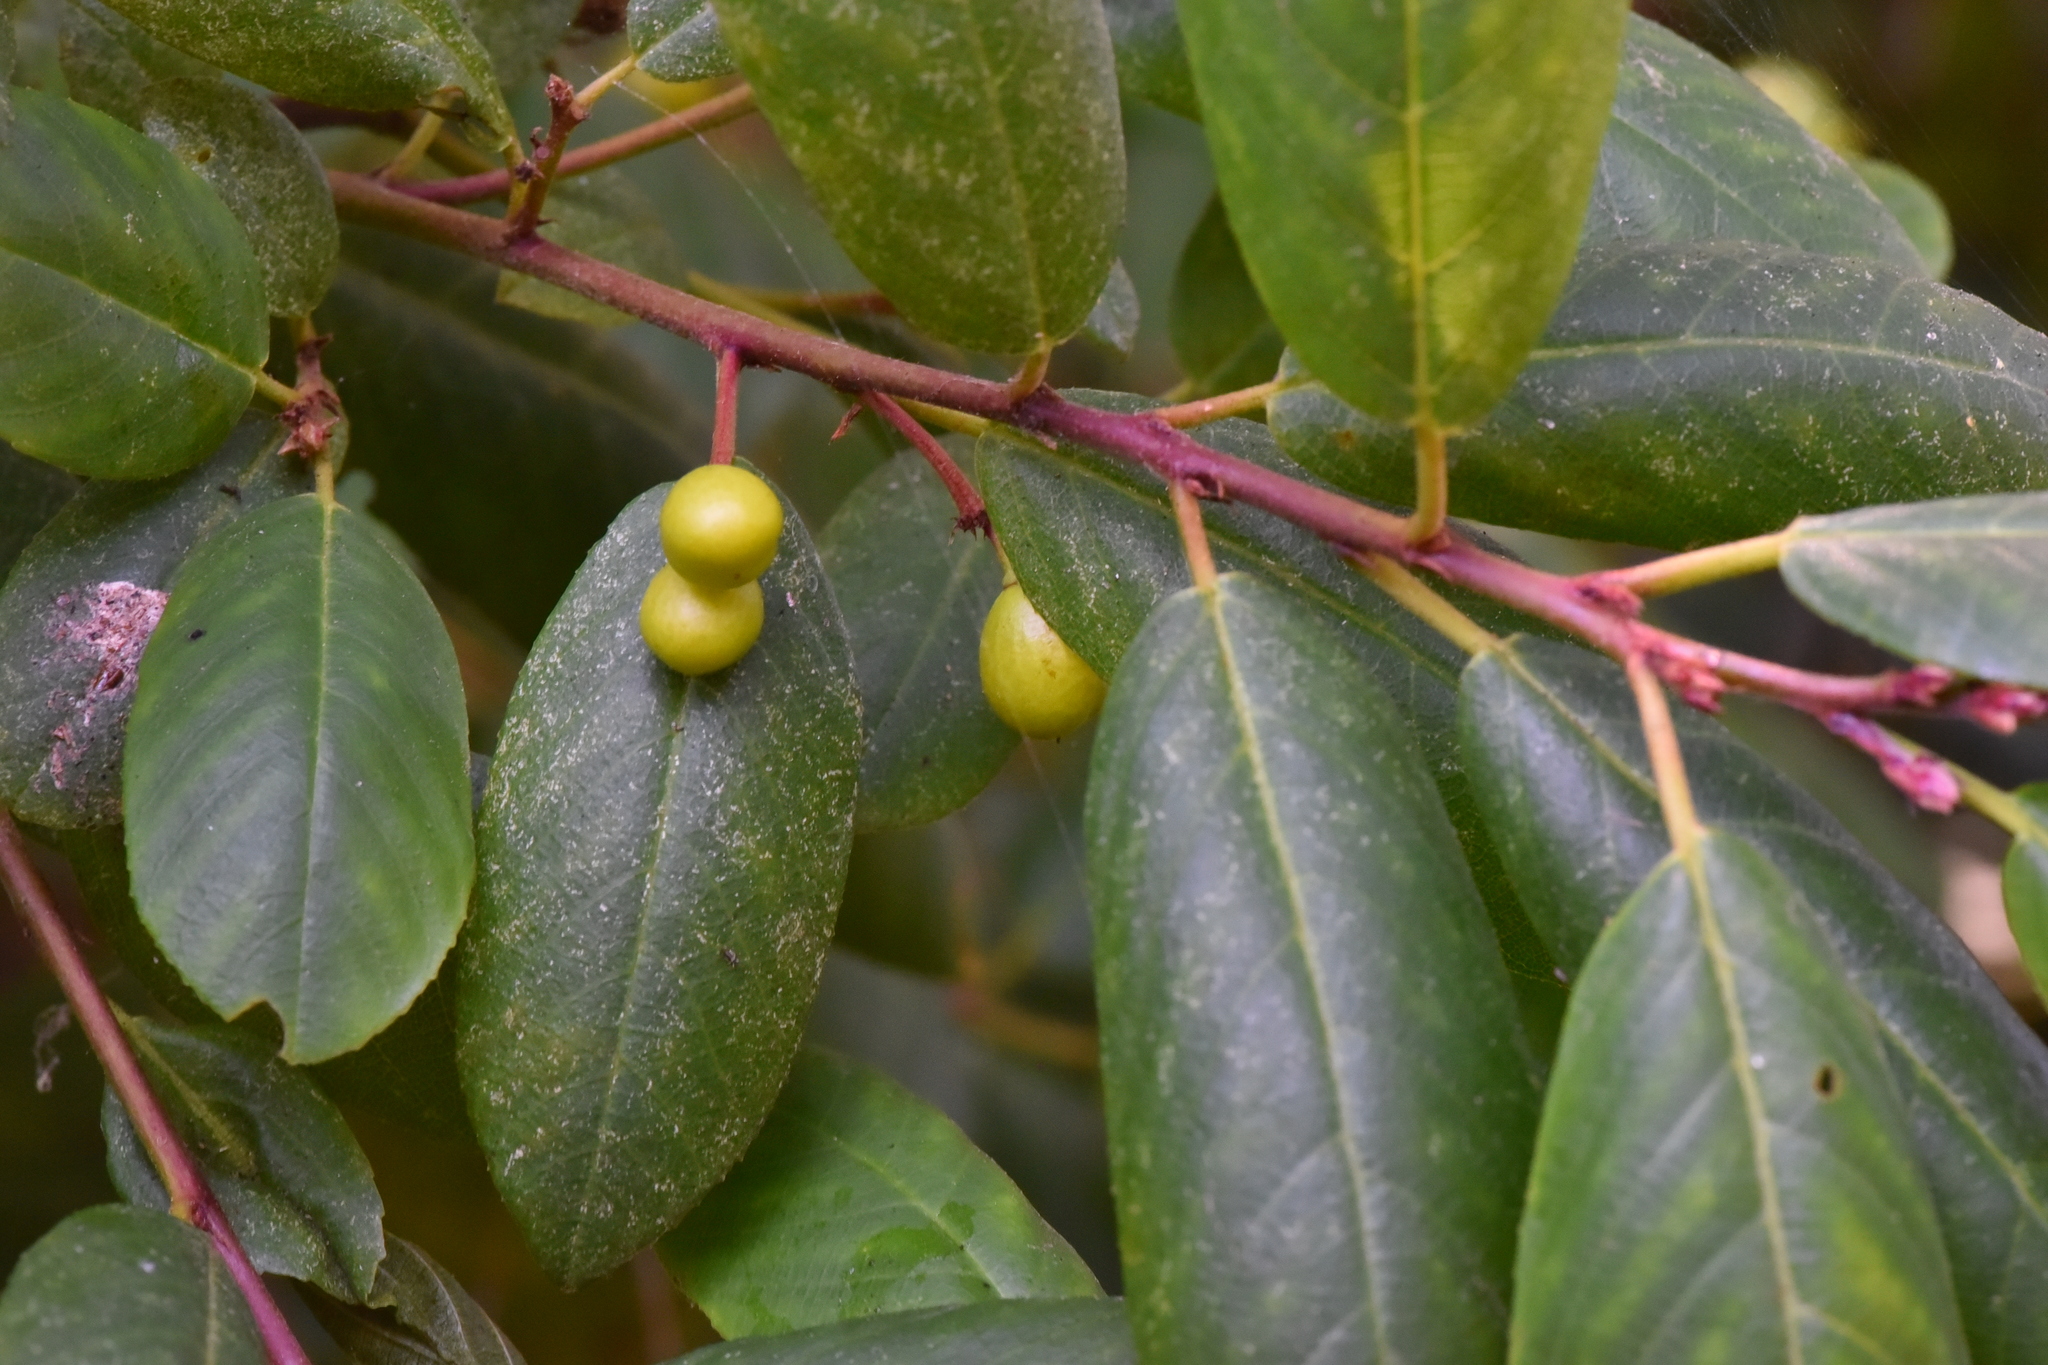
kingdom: Plantae
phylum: Tracheophyta
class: Magnoliopsida
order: Rosales
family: Rhamnaceae
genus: Frangula
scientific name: Frangula californica
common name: California buckthorn
